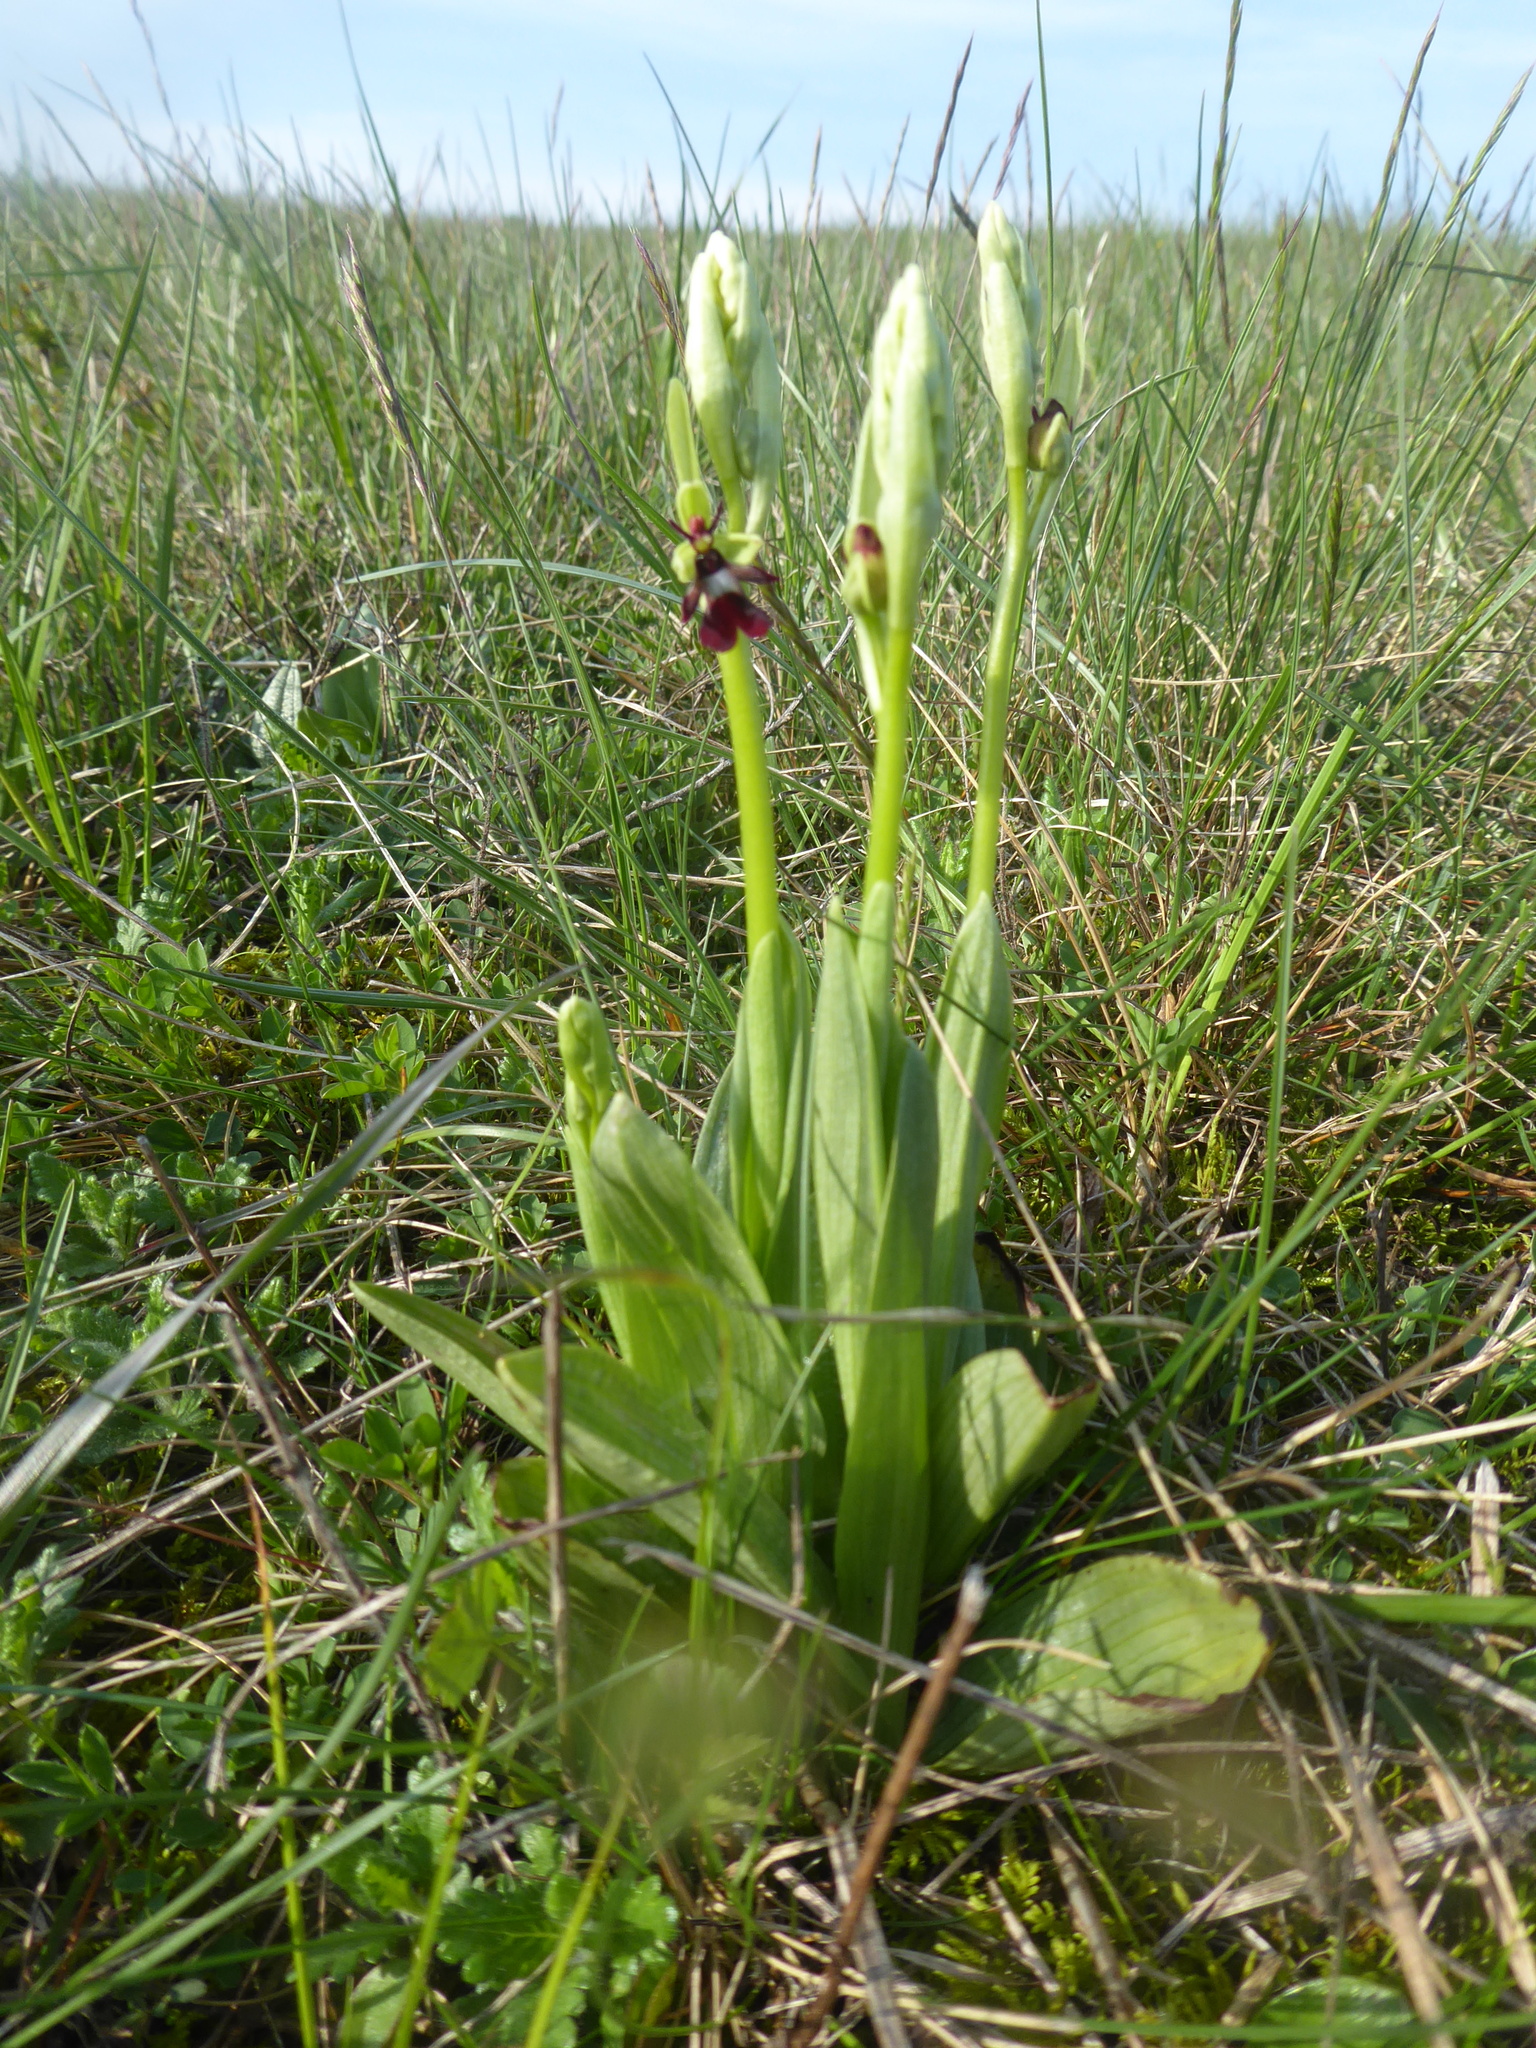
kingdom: Plantae
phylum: Tracheophyta
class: Liliopsida
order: Asparagales
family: Orchidaceae
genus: Ophrys
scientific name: Ophrys insectifera
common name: Fly orchid
